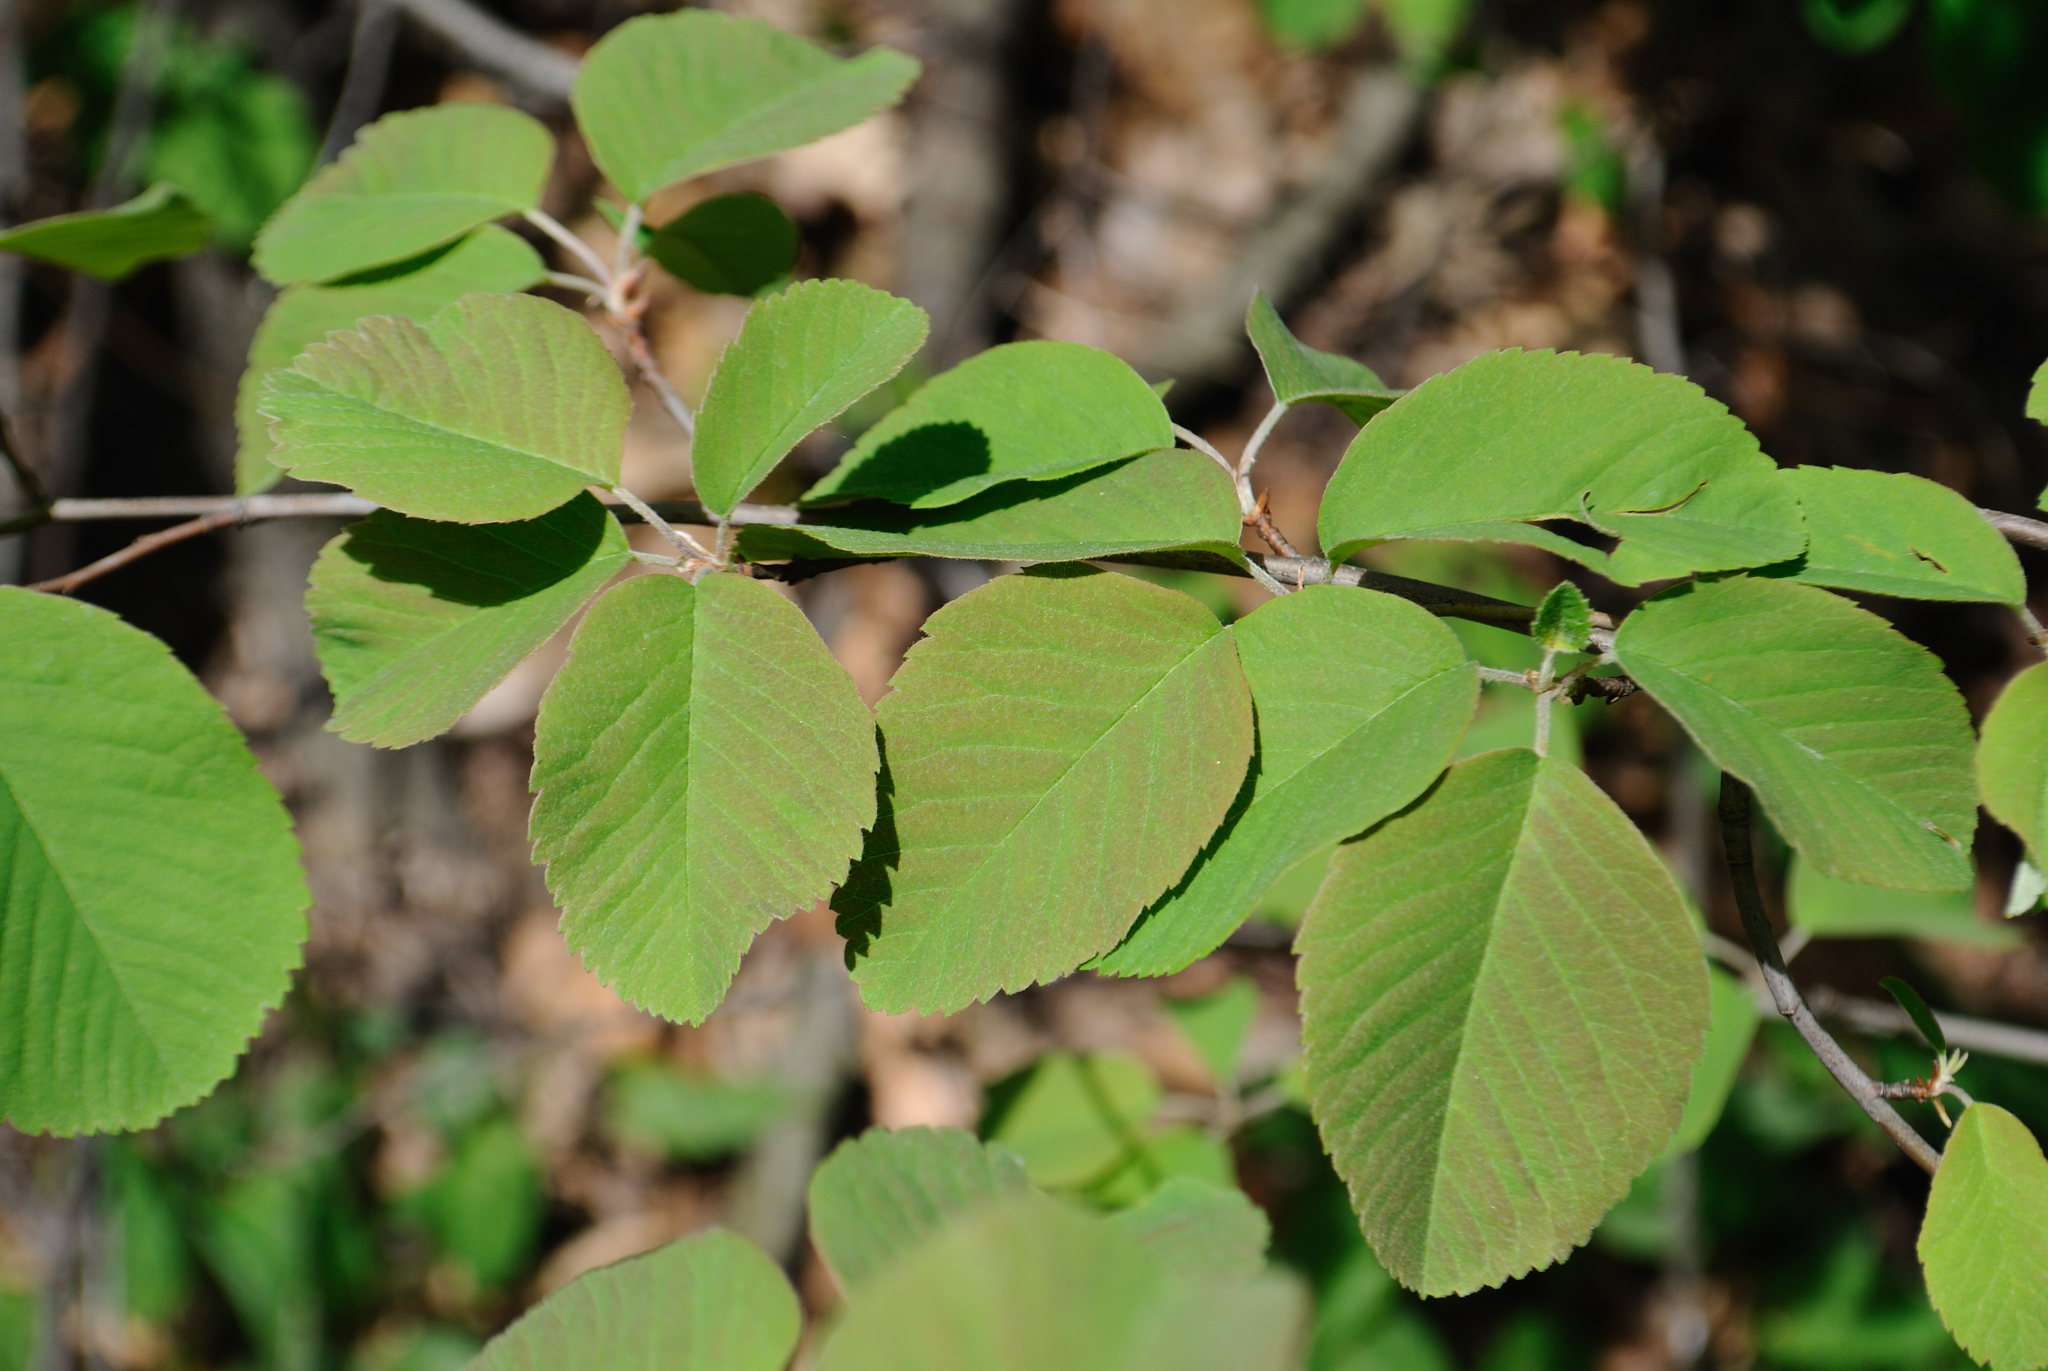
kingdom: Plantae
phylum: Tracheophyta
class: Magnoliopsida
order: Rosales
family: Rosaceae
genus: Amelanchier
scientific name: Amelanchier sanguinea
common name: Huron serviceberry
